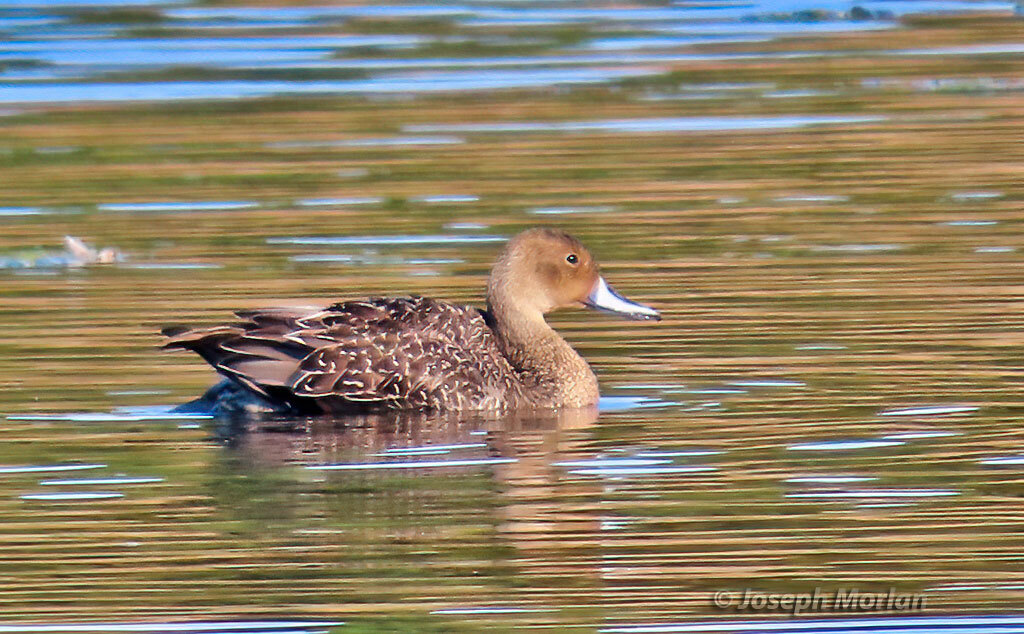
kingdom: Animalia
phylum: Chordata
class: Aves
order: Anseriformes
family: Anatidae
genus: Anas
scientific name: Anas acuta
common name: Northern pintail
